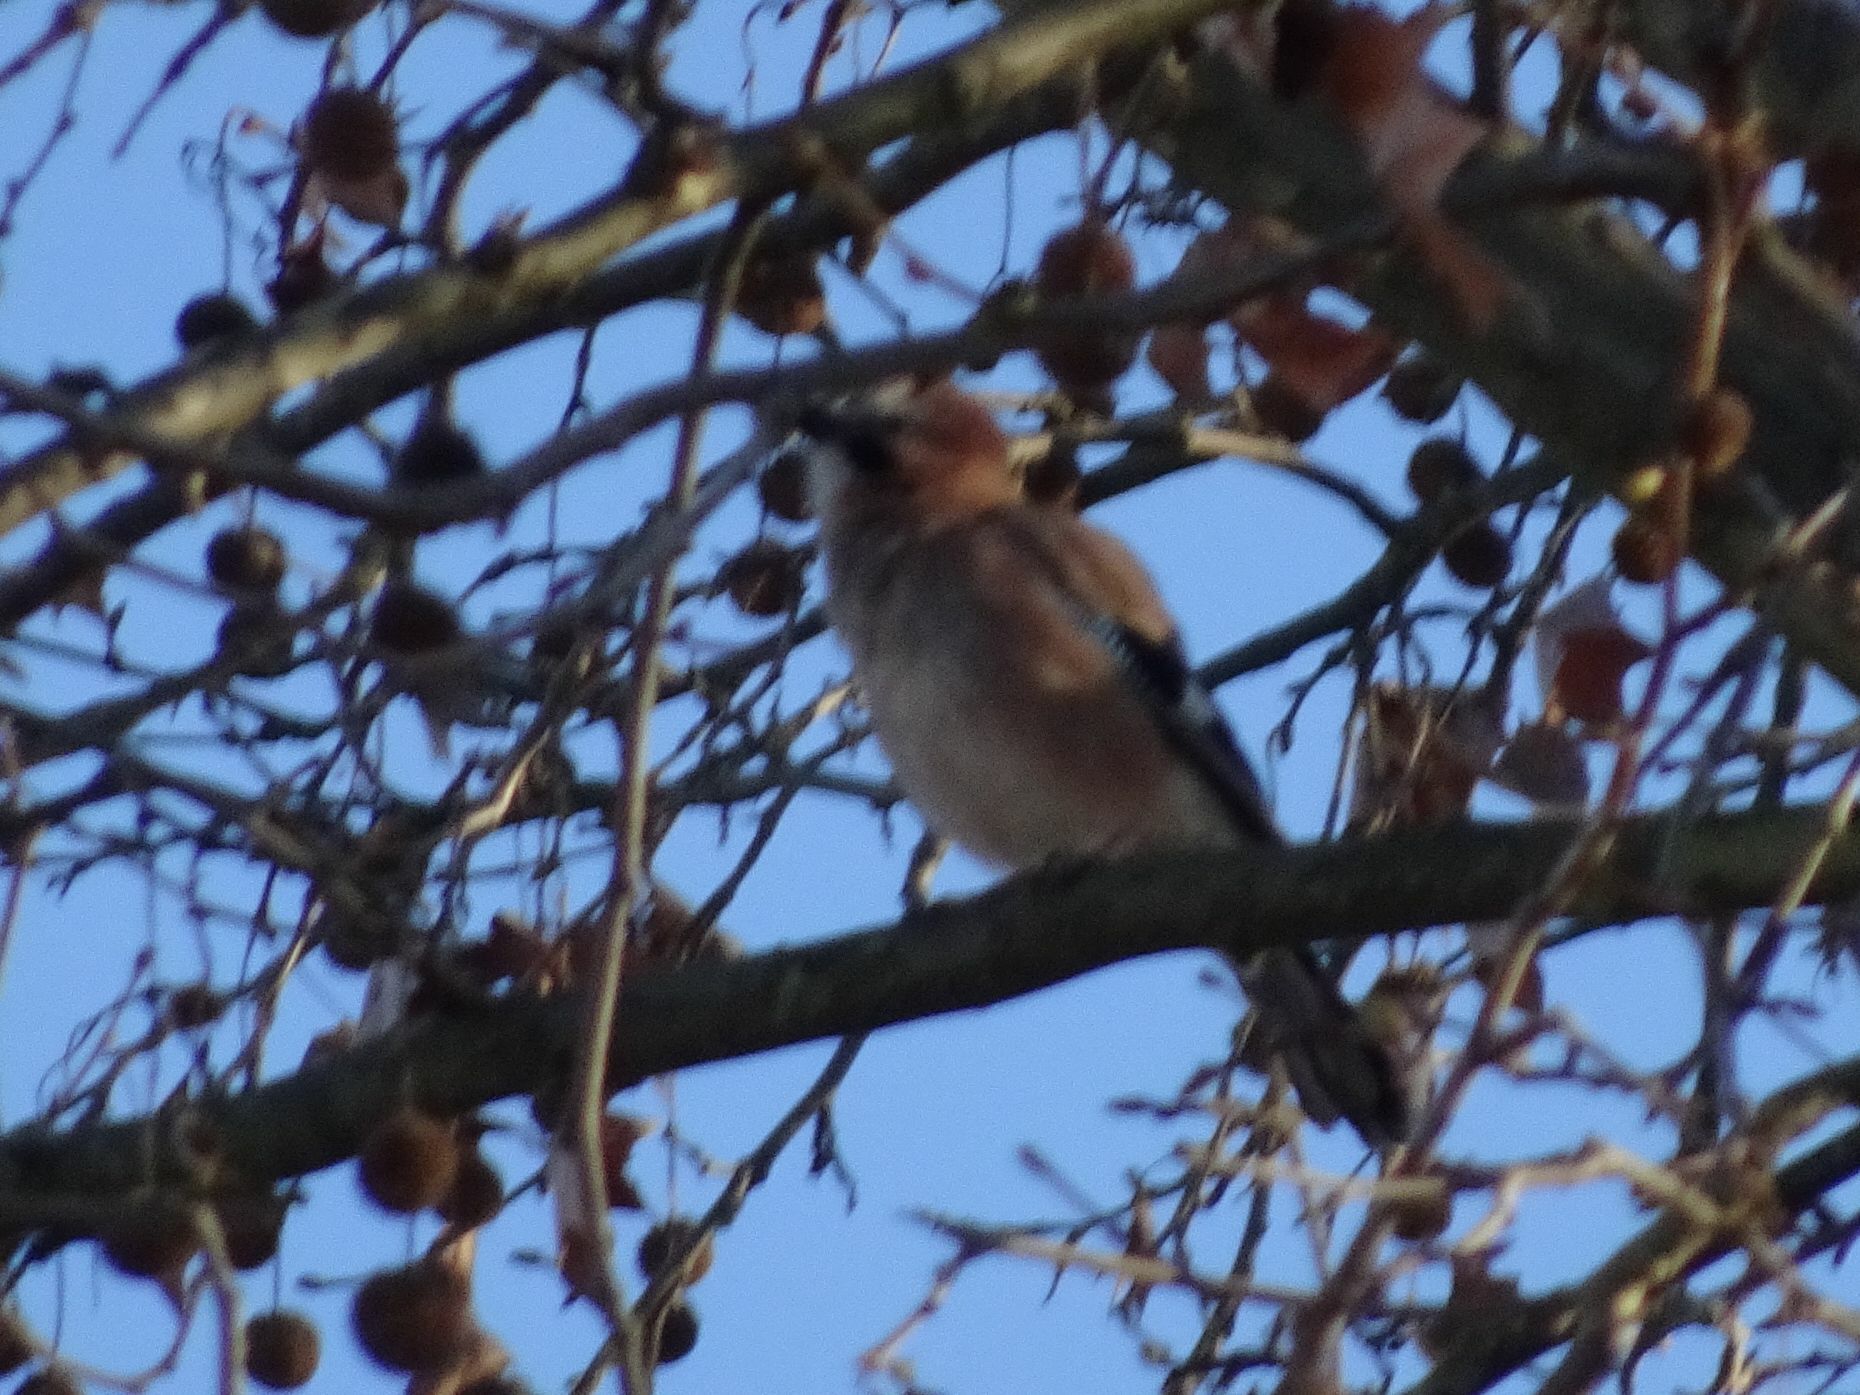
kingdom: Animalia
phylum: Chordata
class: Aves
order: Passeriformes
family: Corvidae
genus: Garrulus
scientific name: Garrulus glandarius
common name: Eurasian jay
